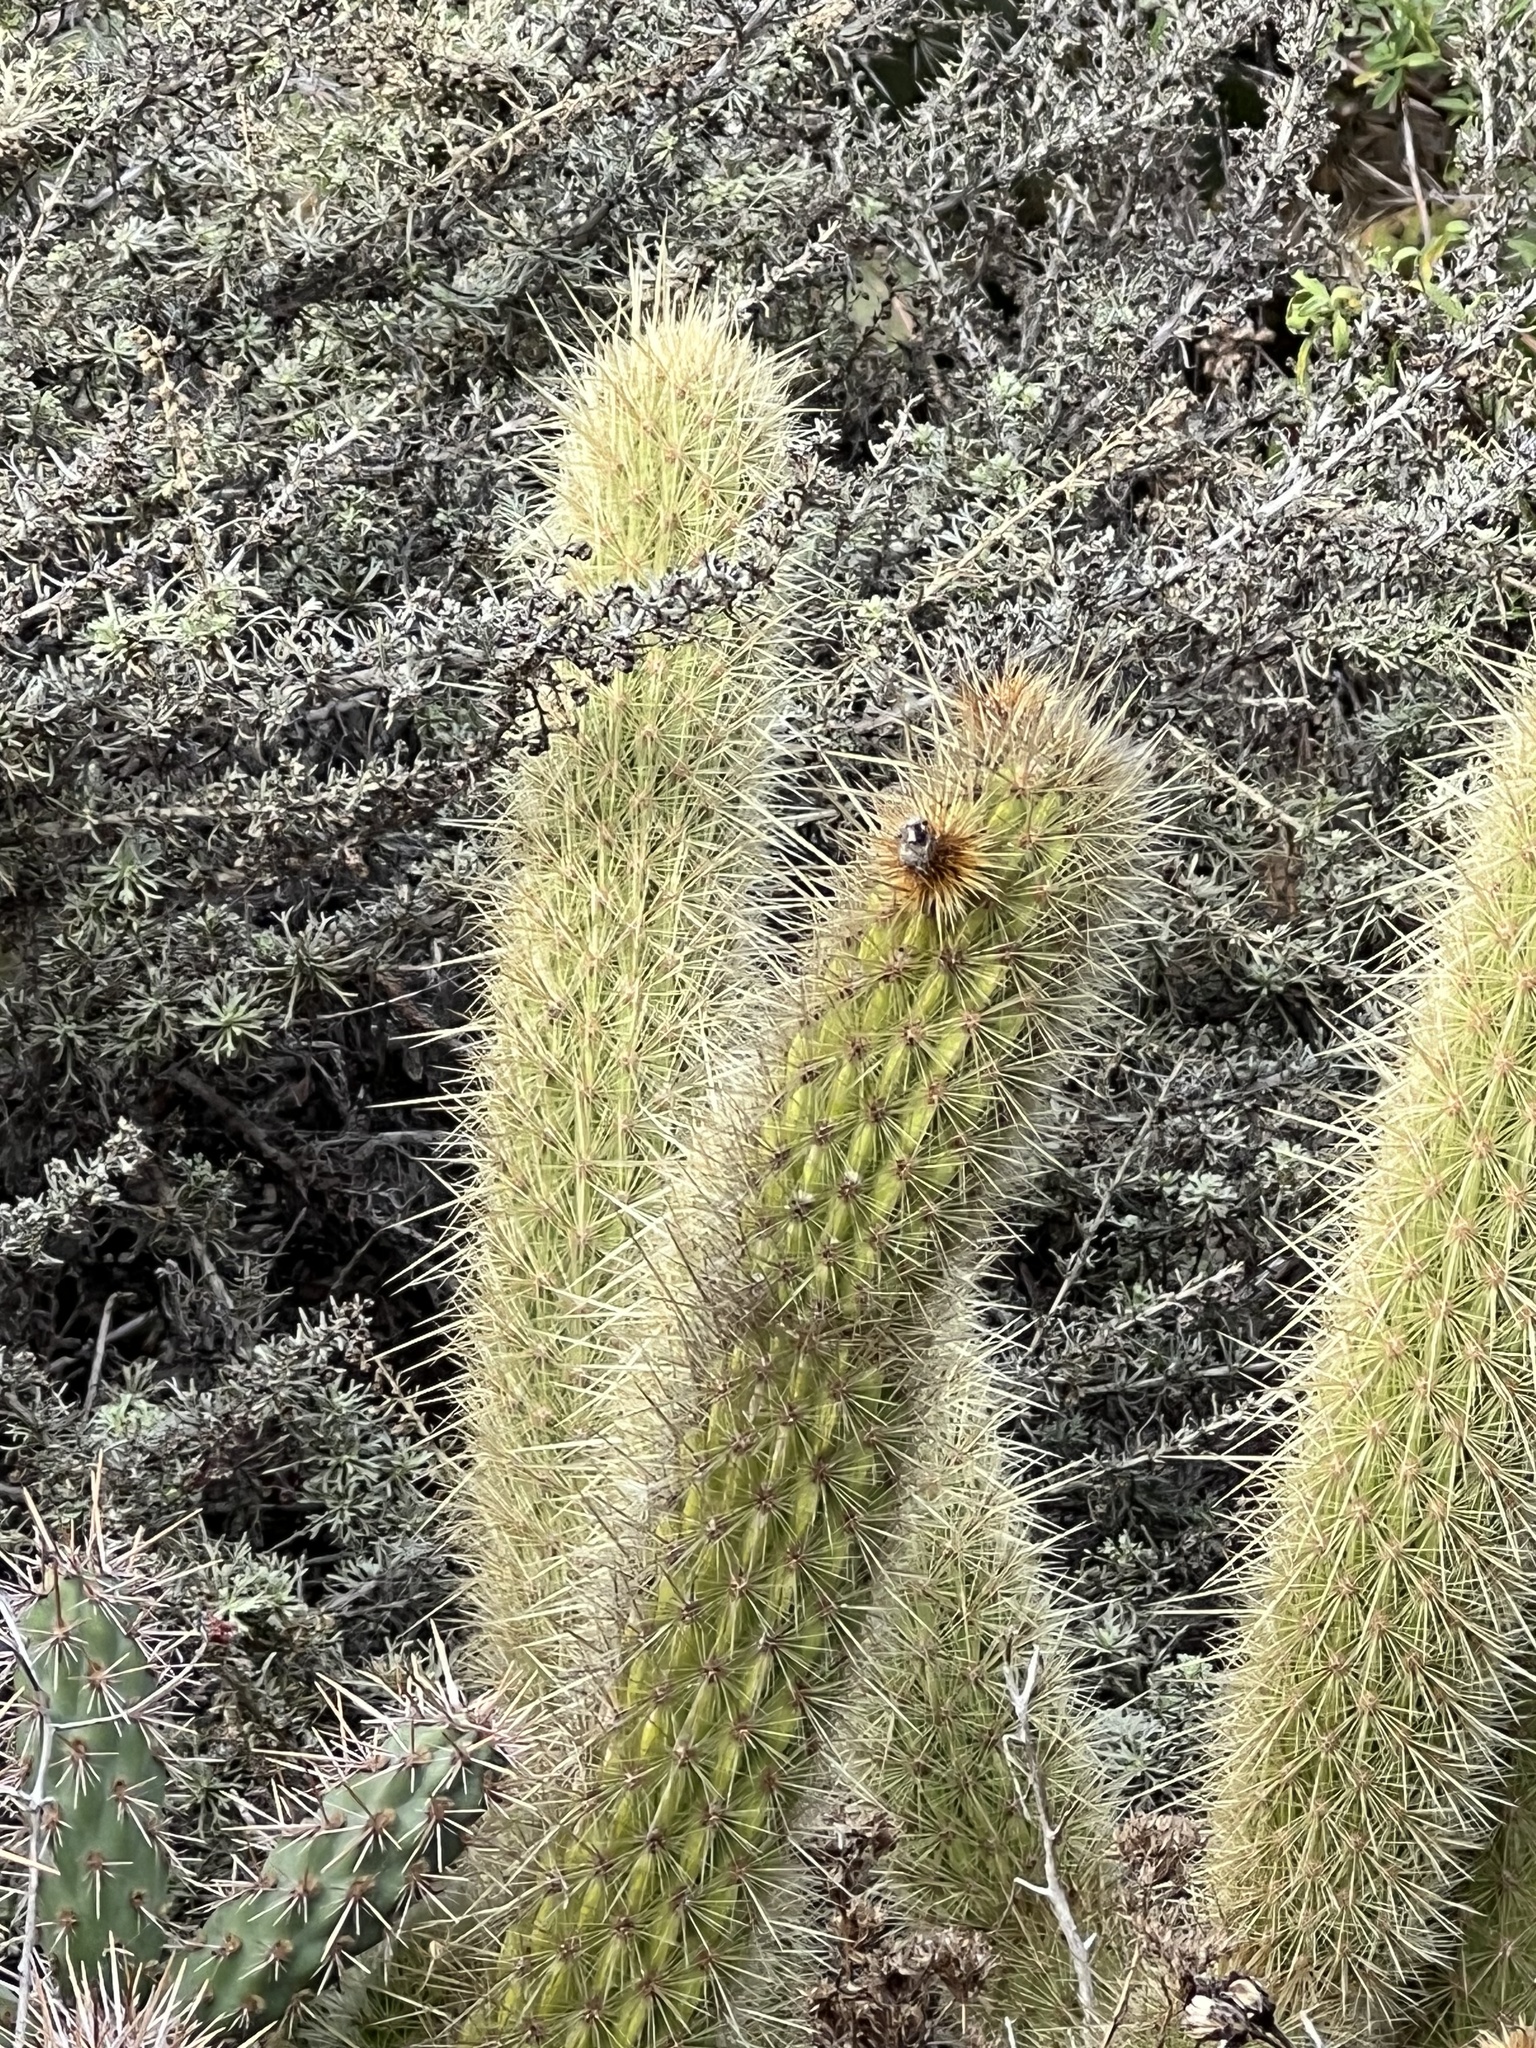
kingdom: Plantae
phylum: Tracheophyta
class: Magnoliopsida
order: Caryophyllales
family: Cactaceae
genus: Bergerocactus
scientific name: Bergerocactus emoryi
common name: Golden snakecactus
